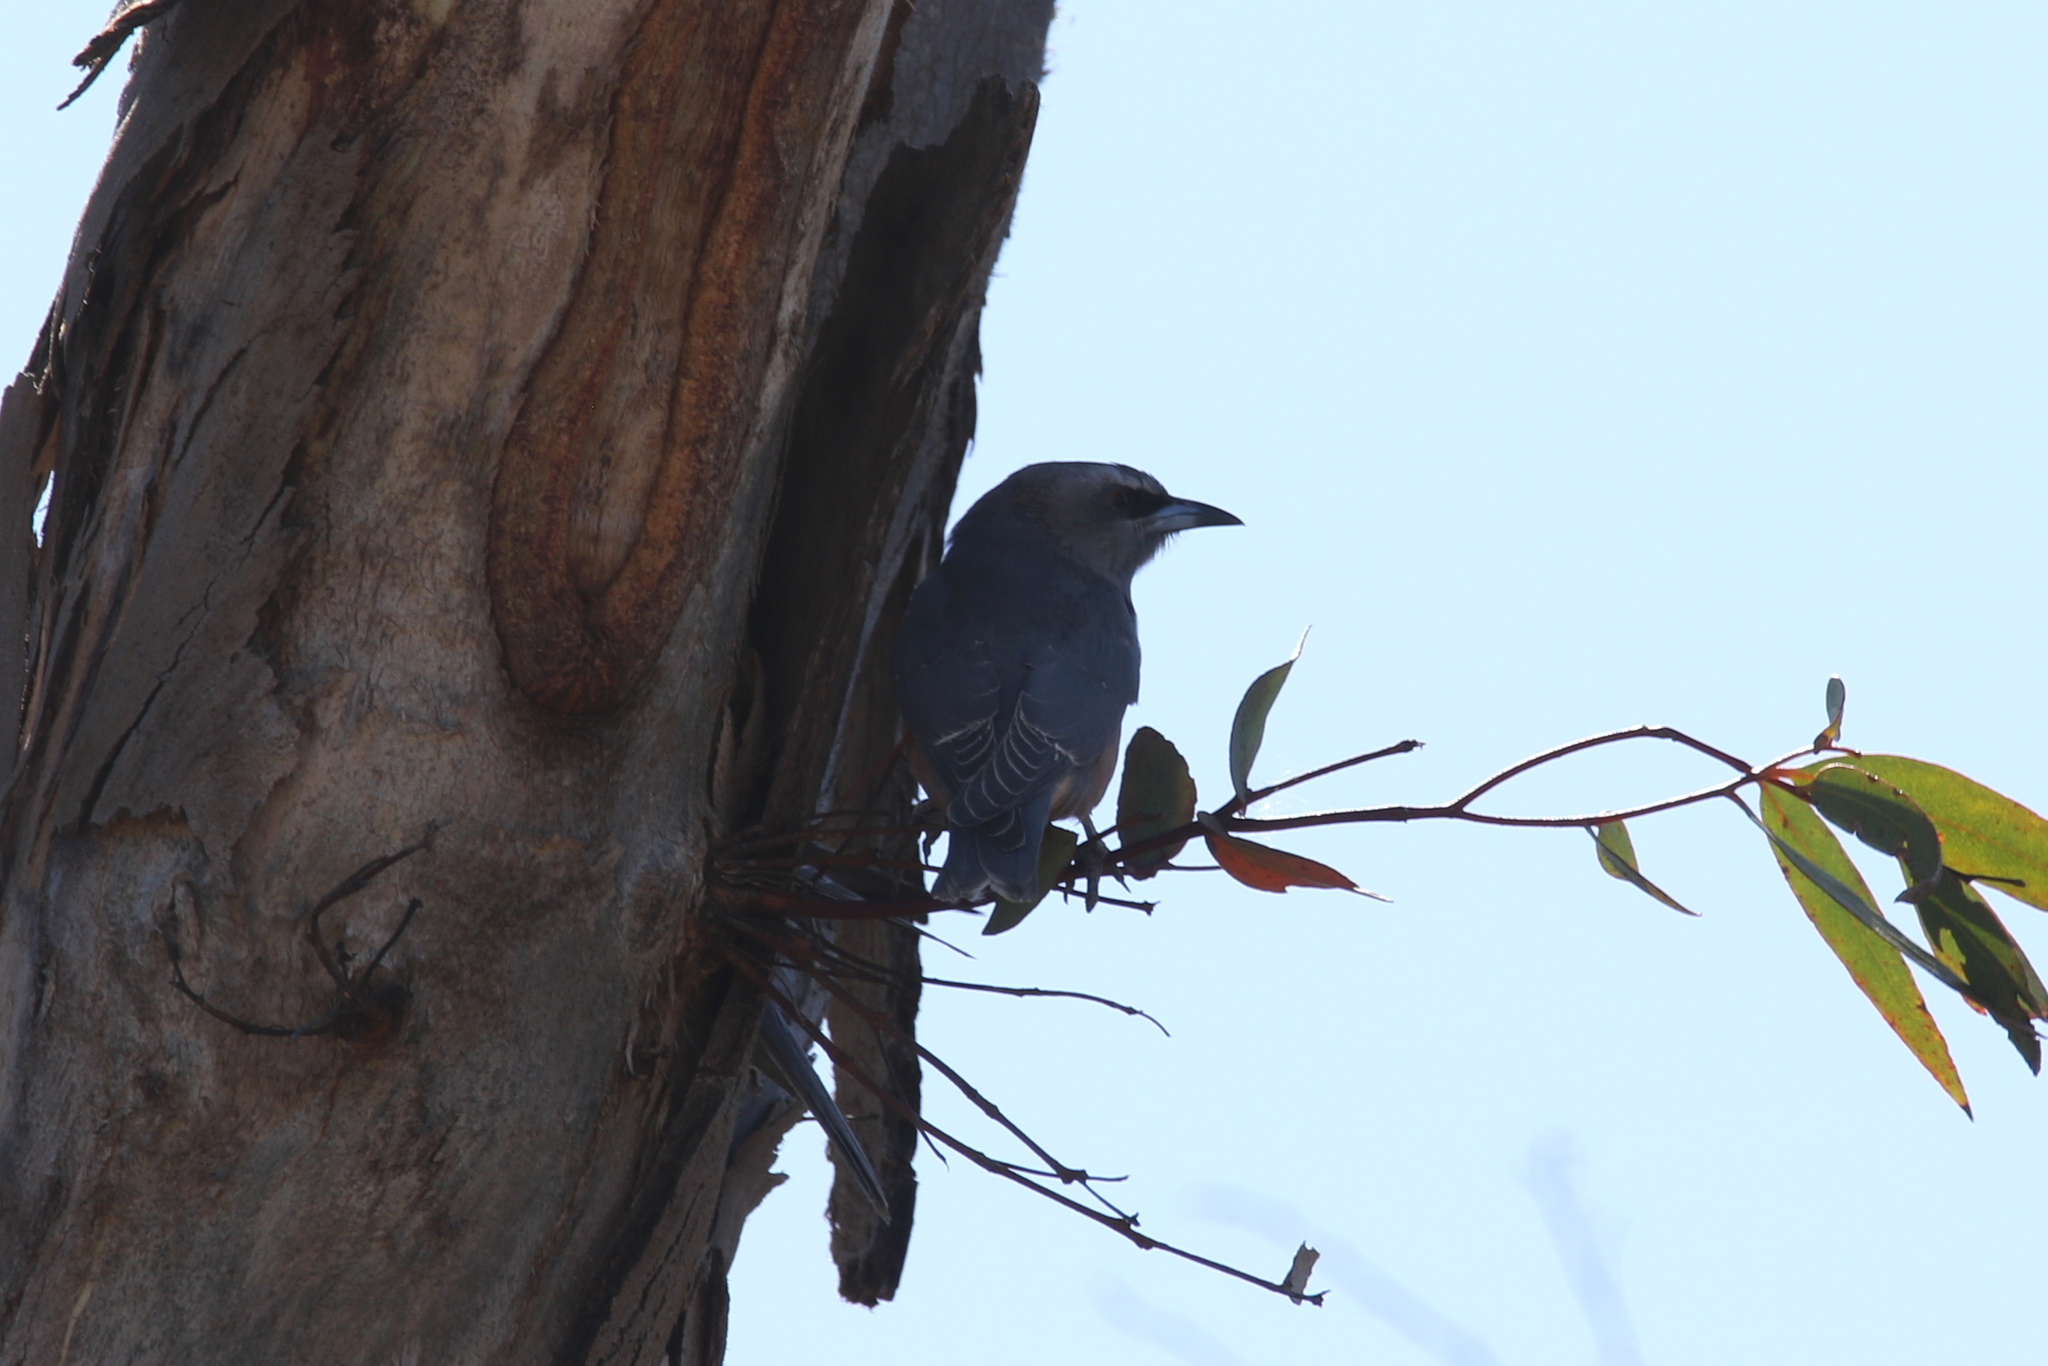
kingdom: Animalia
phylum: Chordata
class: Aves
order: Passeriformes
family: Artamidae
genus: Artamus
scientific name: Artamus superciliosus
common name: White-browed woodswallow
